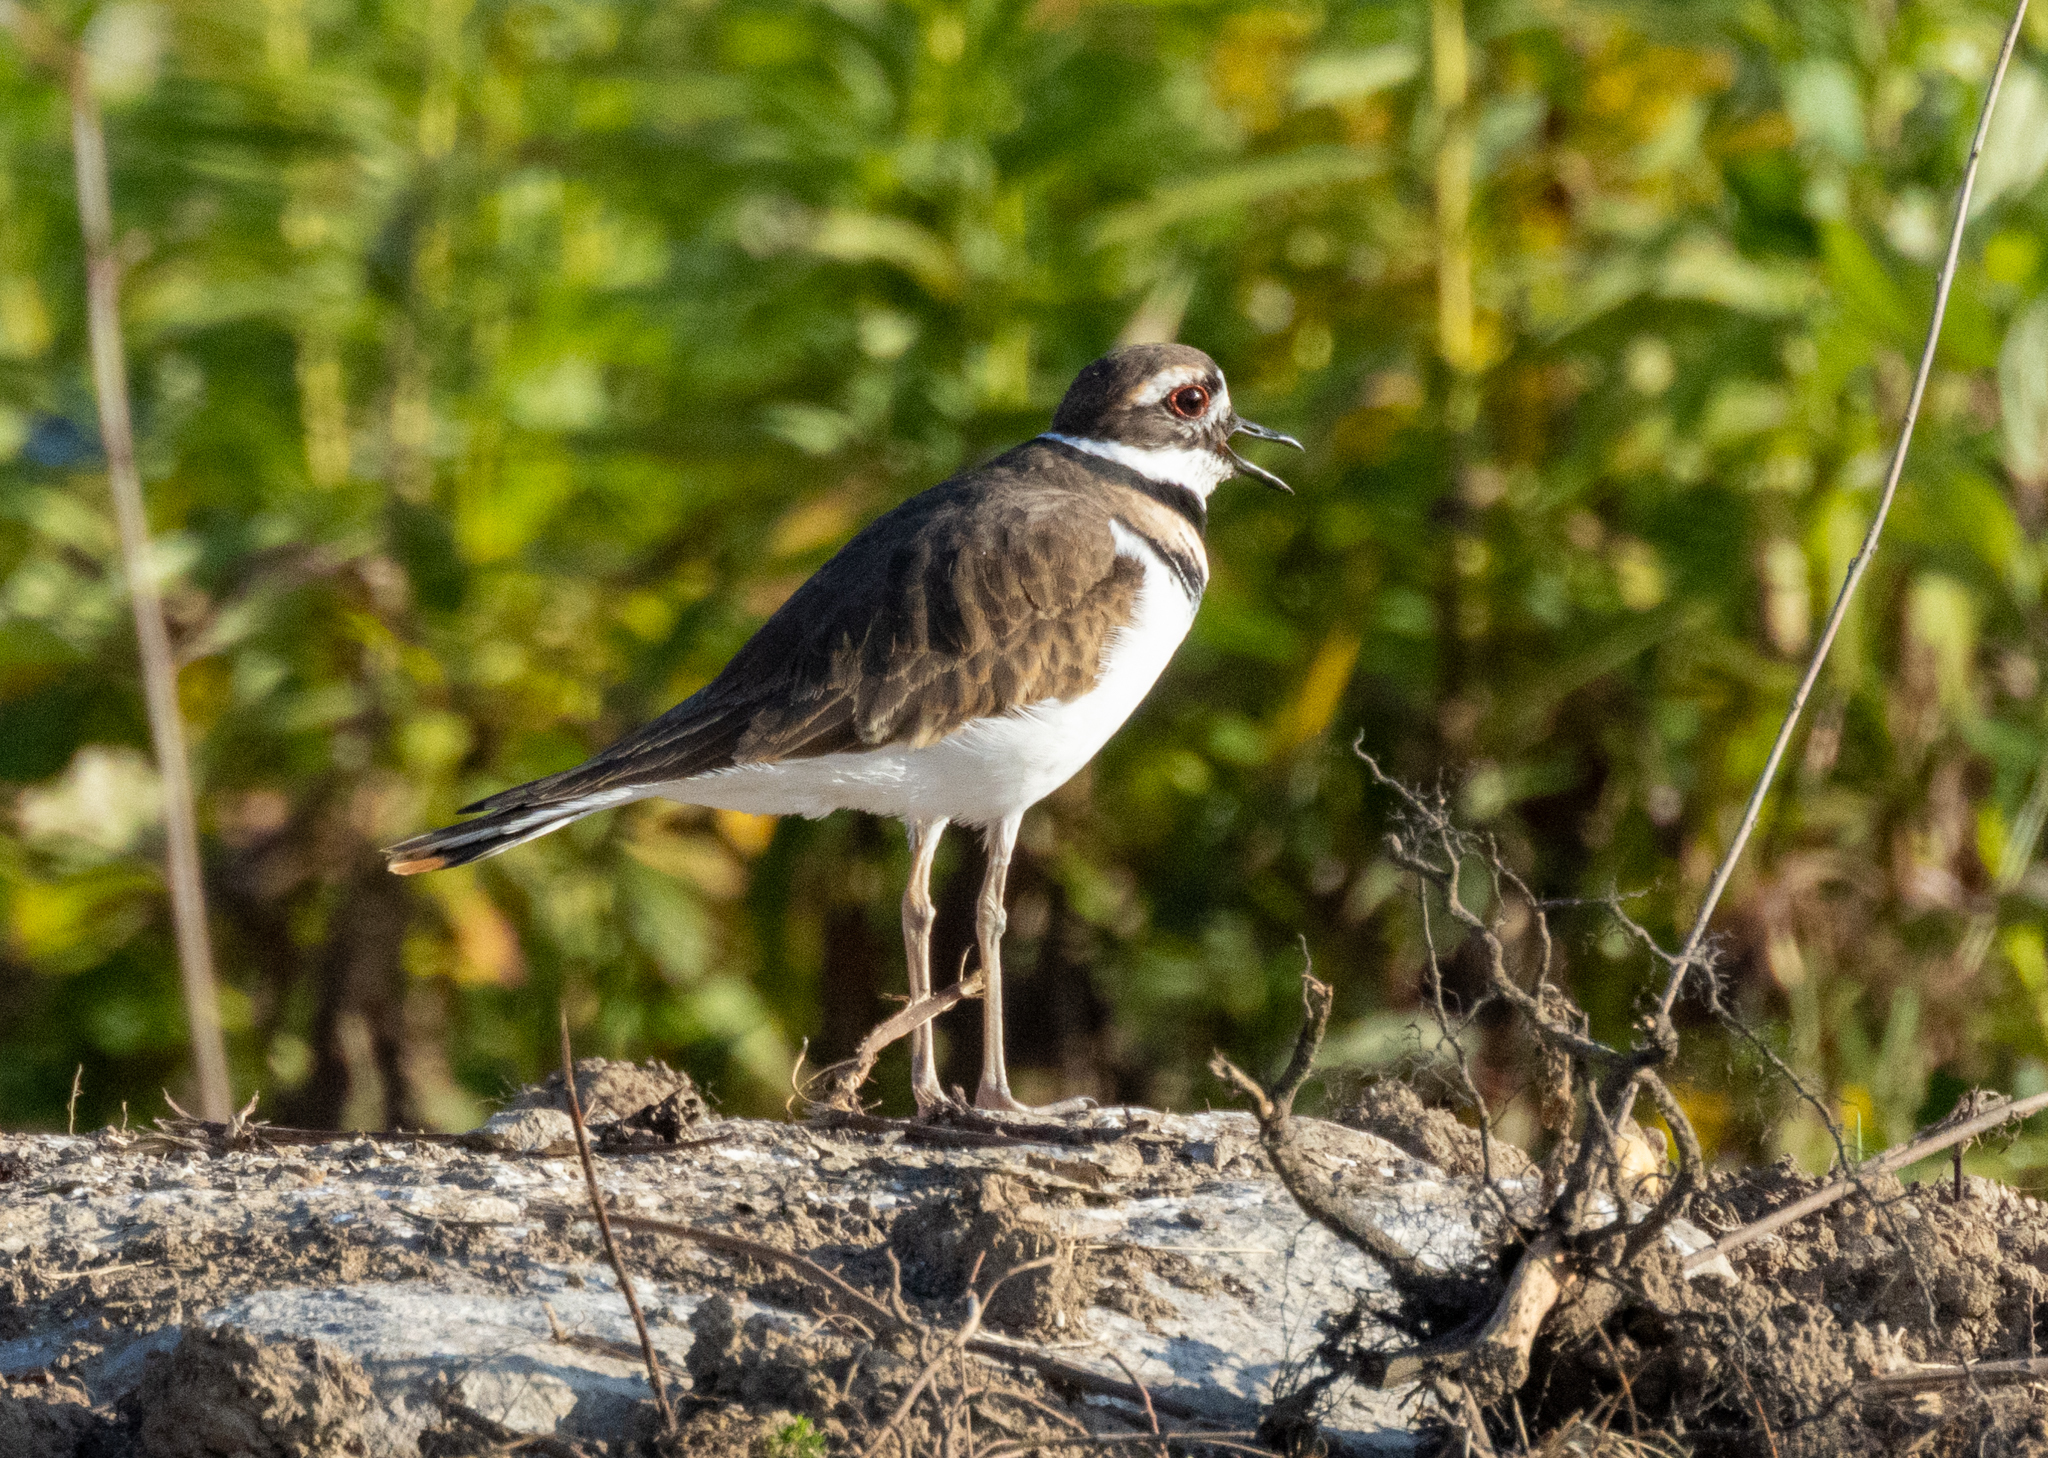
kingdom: Animalia
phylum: Chordata
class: Aves
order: Charadriiformes
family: Charadriidae
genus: Charadrius
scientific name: Charadrius vociferus
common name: Killdeer
